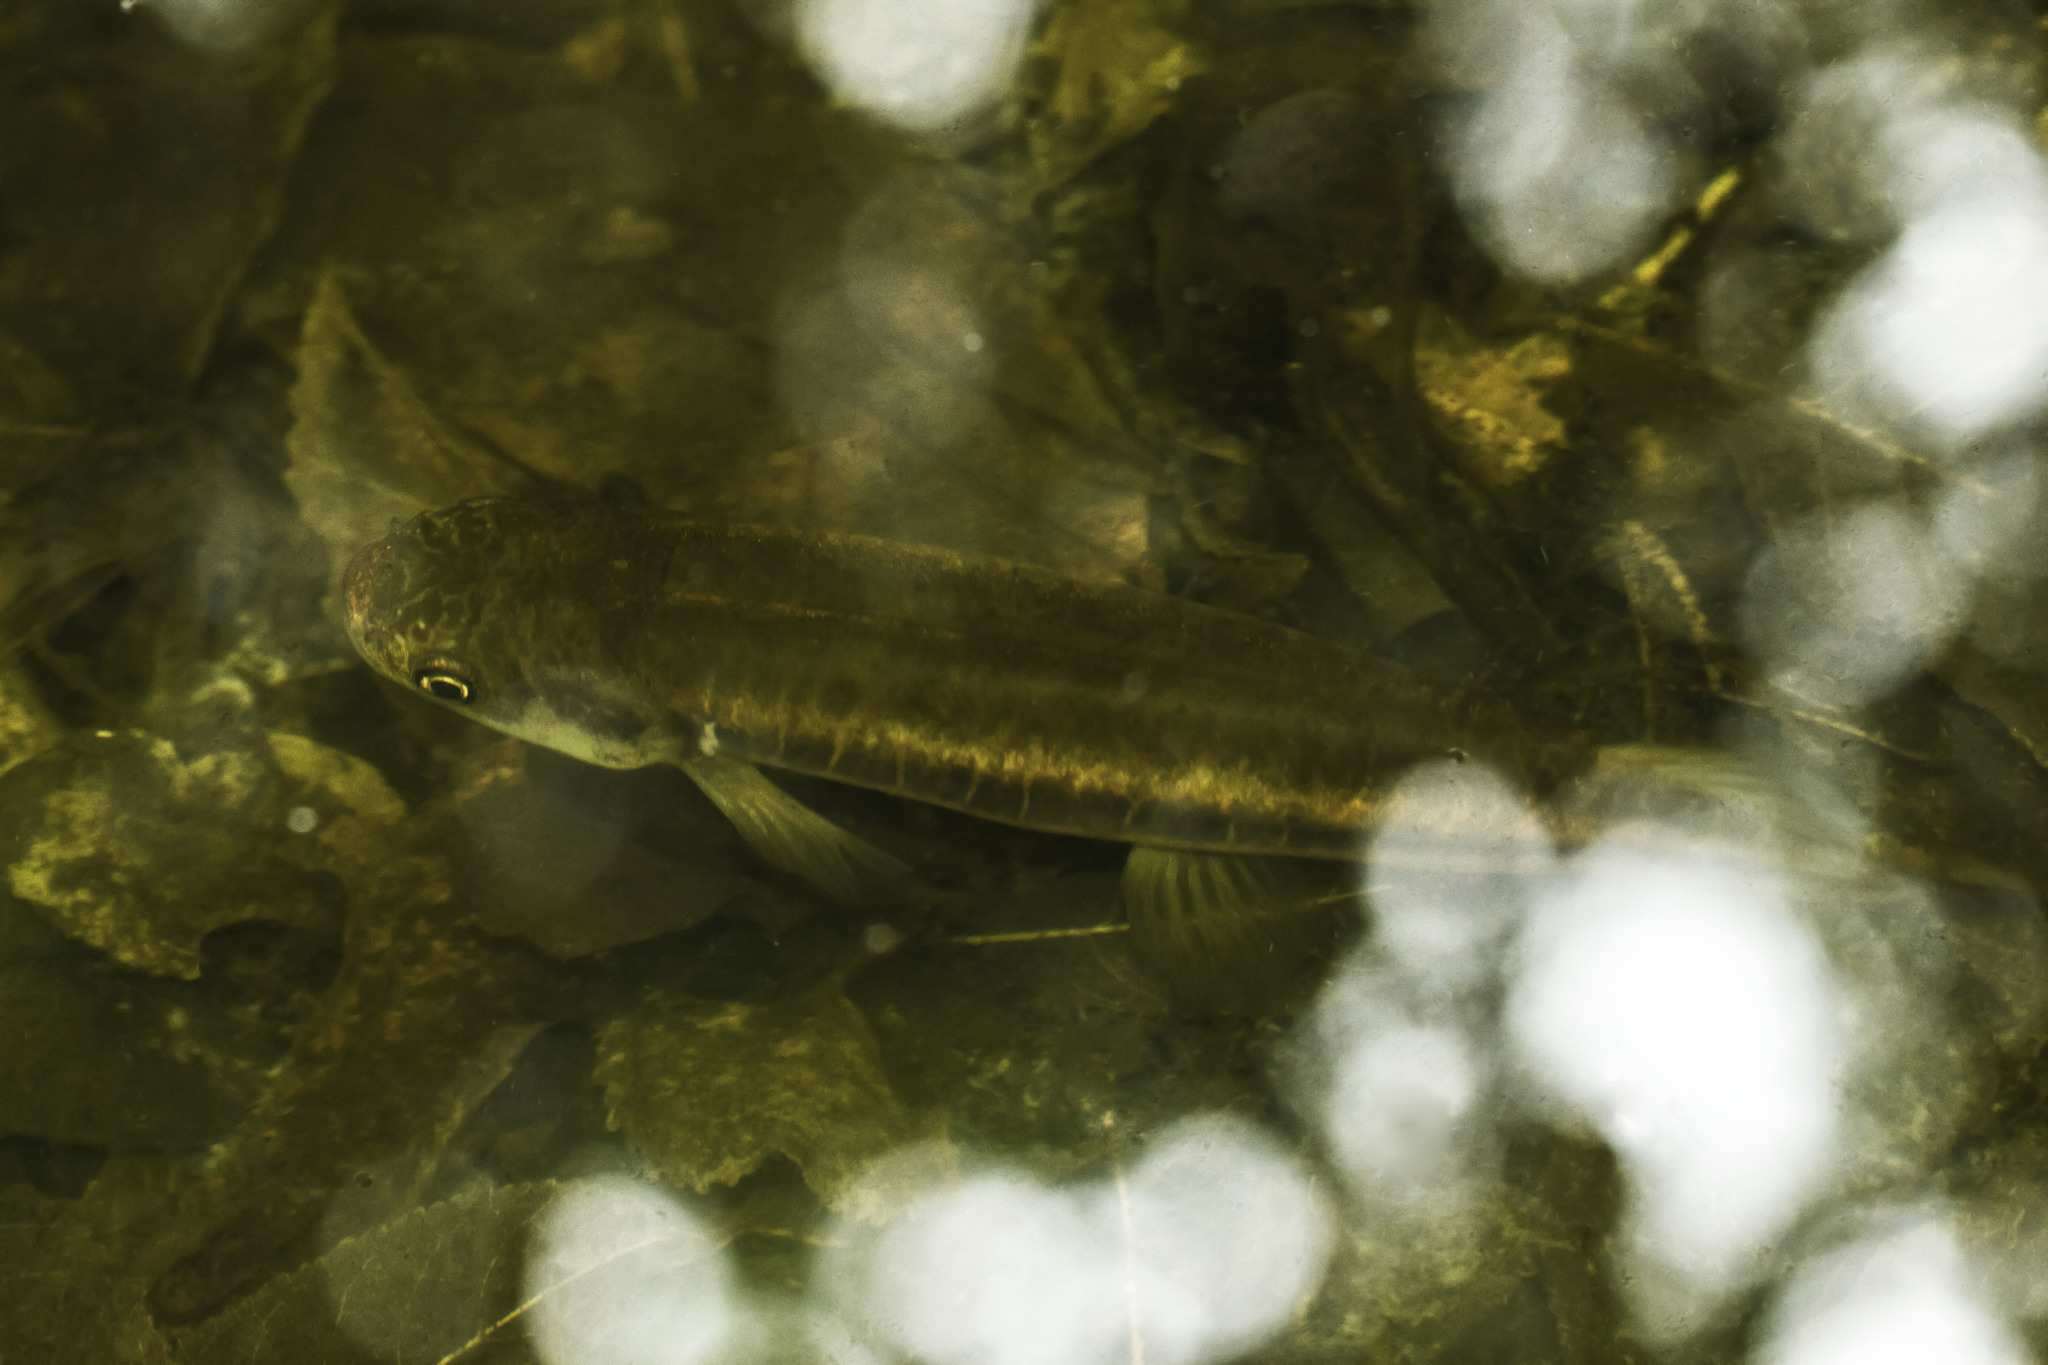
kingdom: Animalia
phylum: Chordata
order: Osmeriformes
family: Galaxiidae
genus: Galaxias
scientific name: Galaxias fasciatus
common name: Banded kokopu
